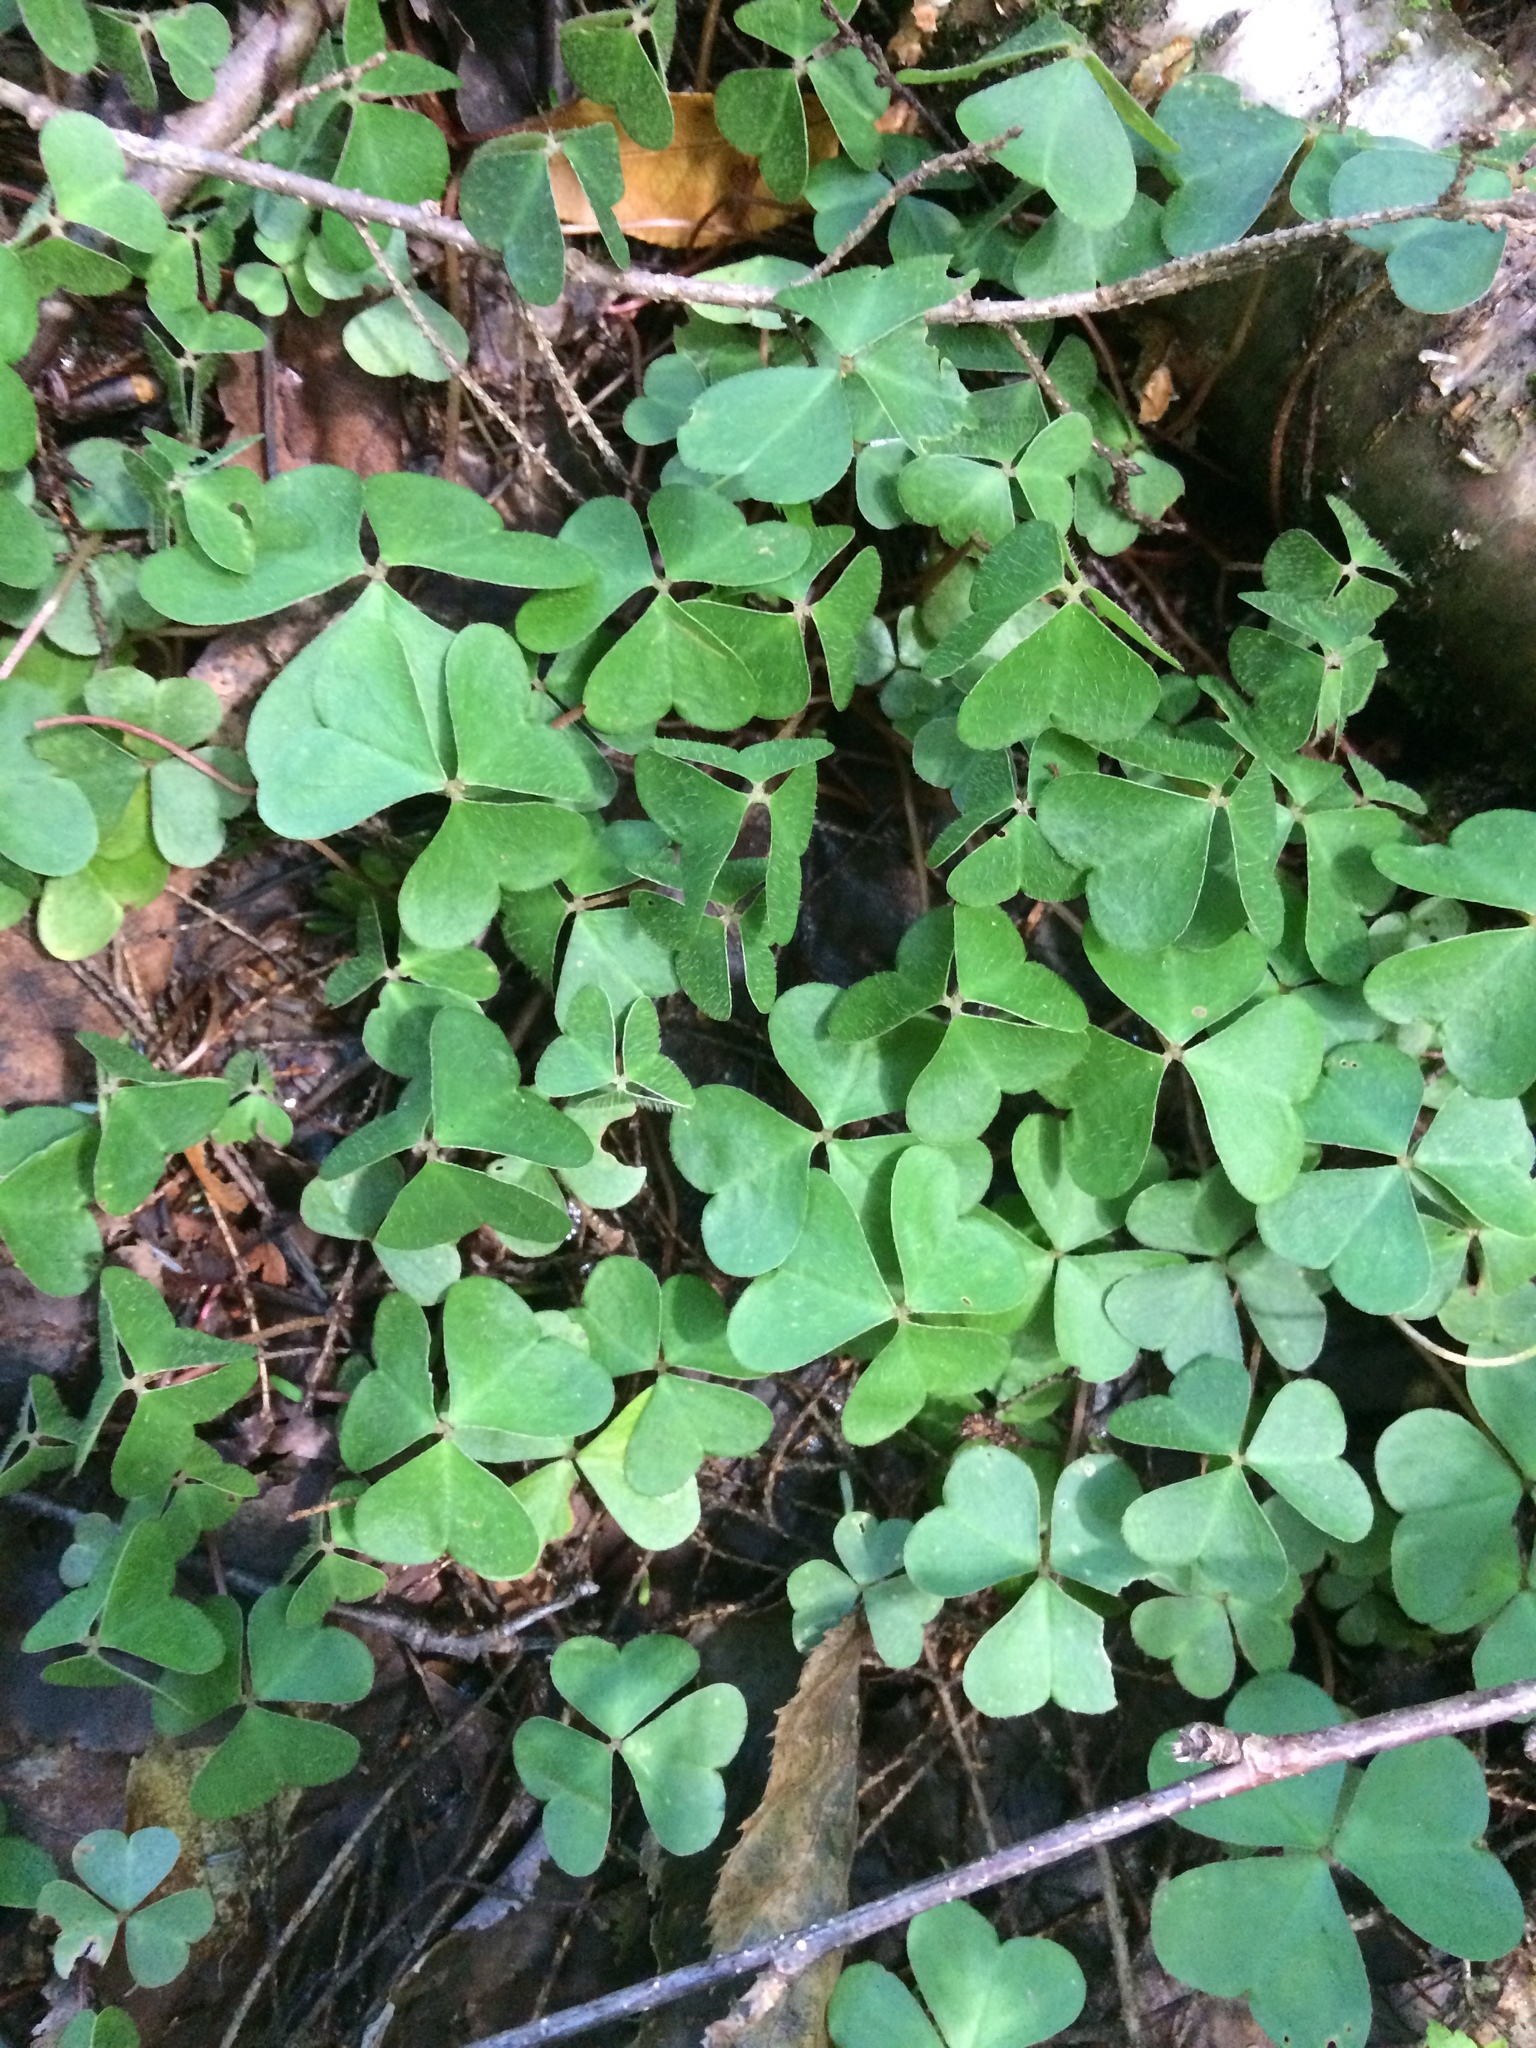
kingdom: Plantae
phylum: Tracheophyta
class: Magnoliopsida
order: Oxalidales
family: Oxalidaceae
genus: Oxalis
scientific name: Oxalis montana
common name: American wood-sorrel
